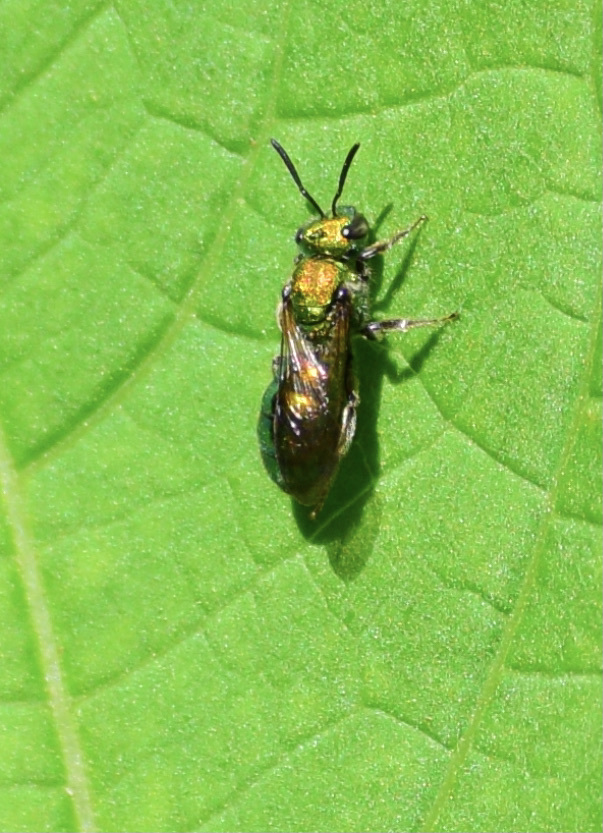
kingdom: Animalia
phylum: Arthropoda
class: Insecta
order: Hymenoptera
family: Halictidae
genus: Augochlora
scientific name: Augochlora pura
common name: Pure green sweat bee
